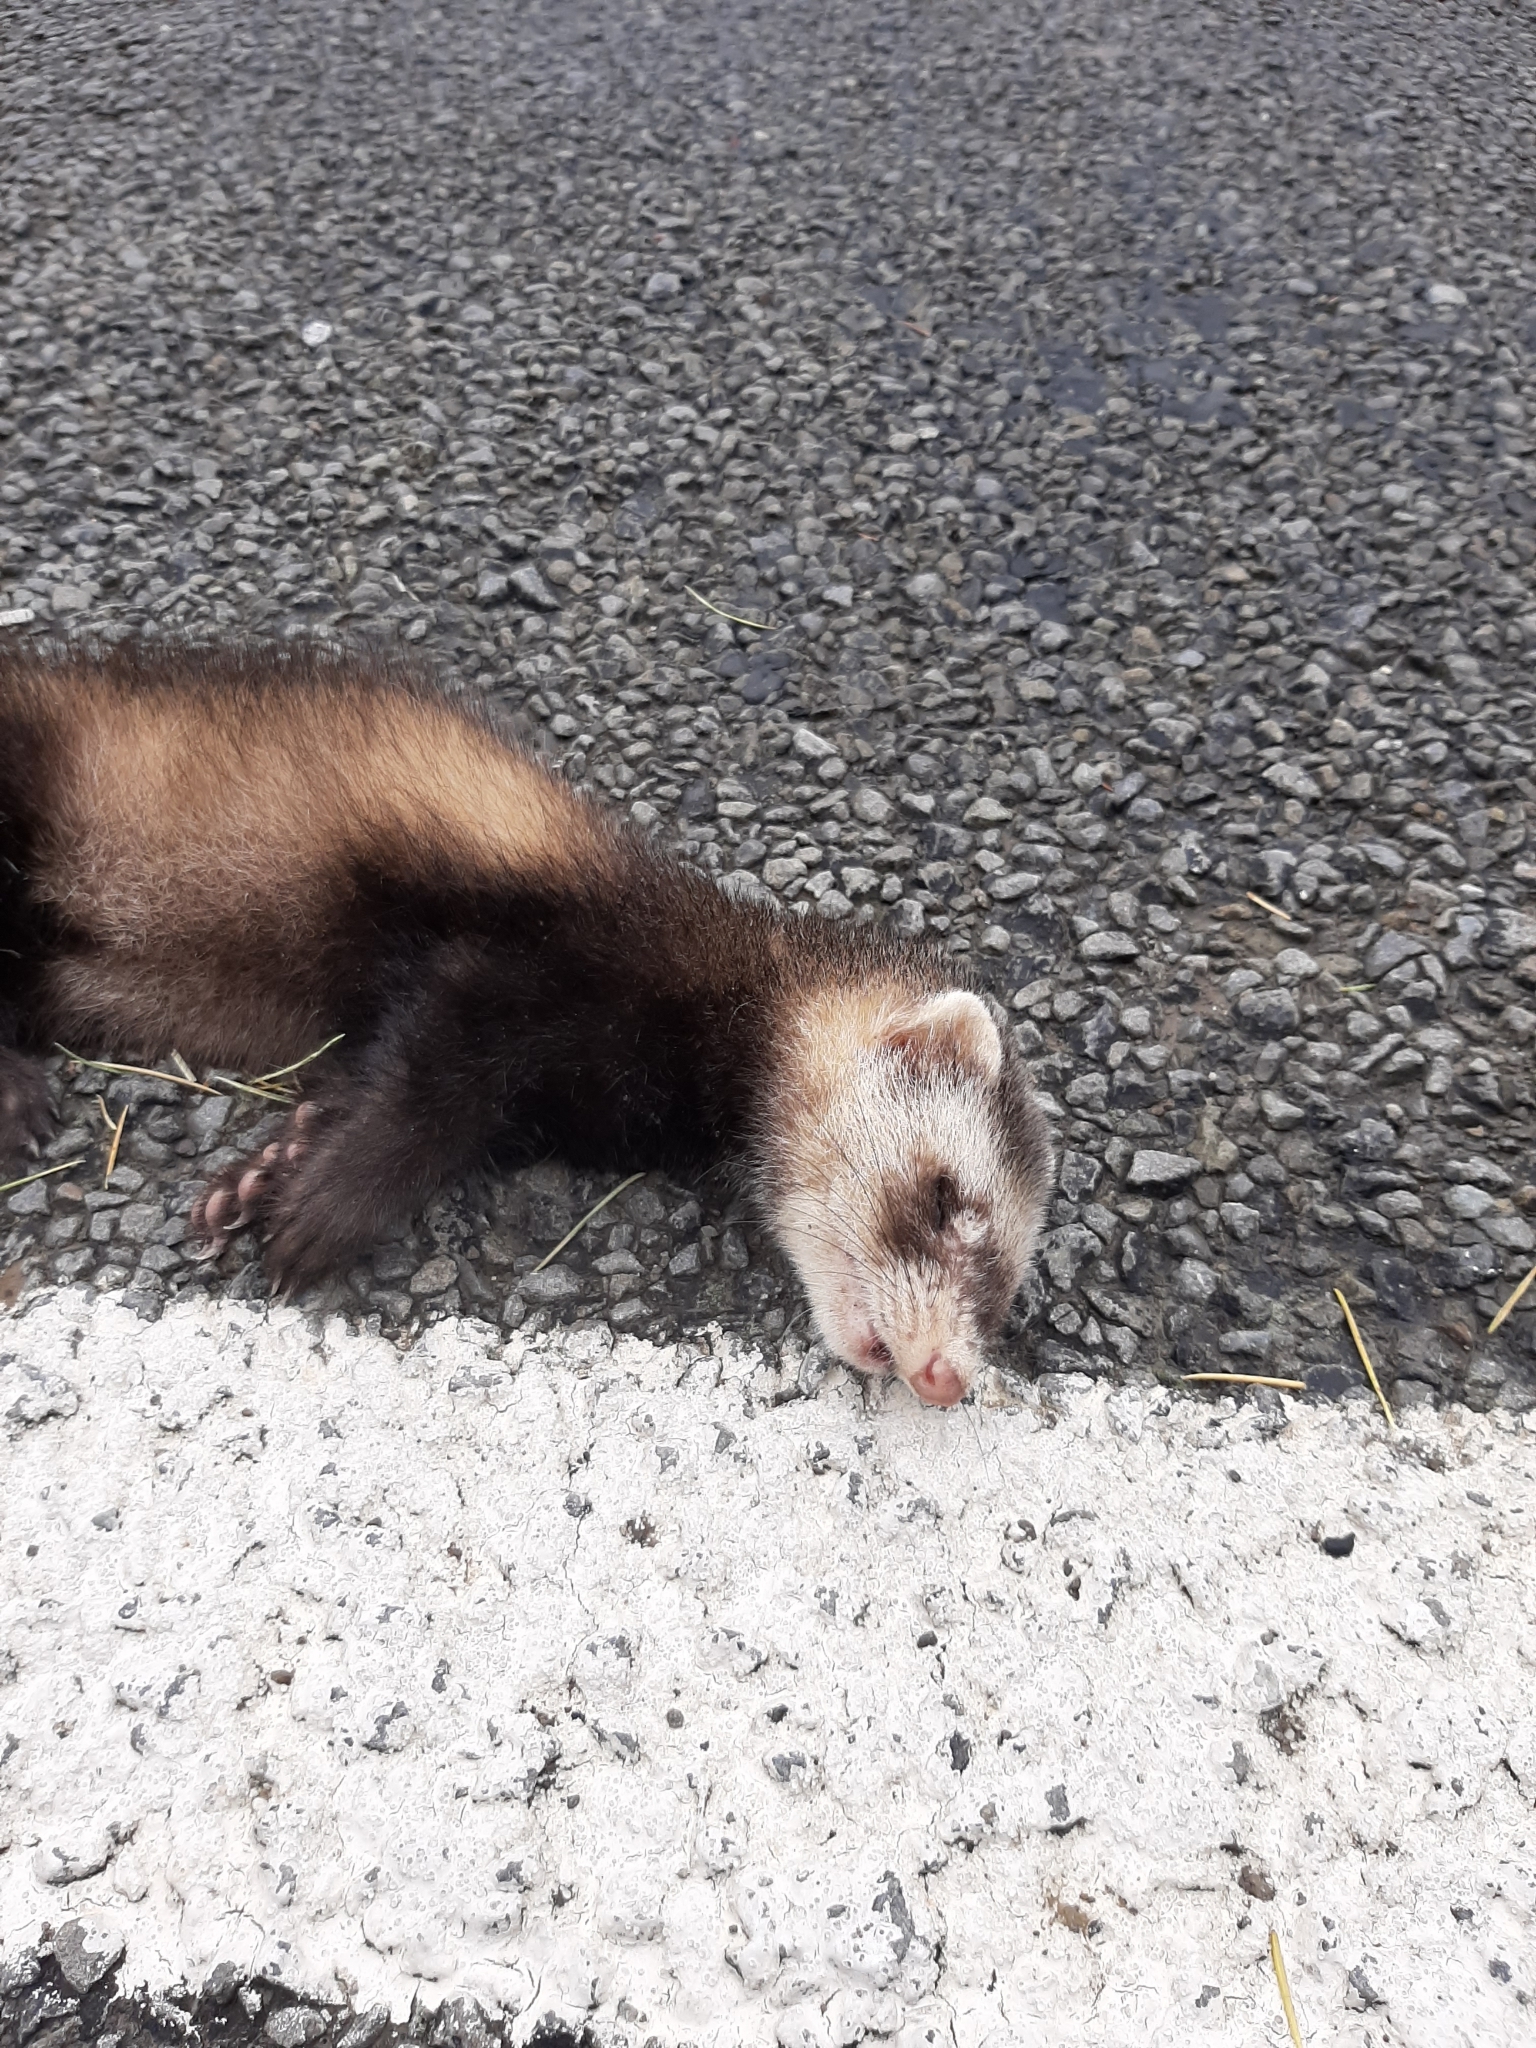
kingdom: Animalia
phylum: Chordata
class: Mammalia
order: Carnivora
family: Mustelidae
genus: Mustela
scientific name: Mustela putorius
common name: European polecat
